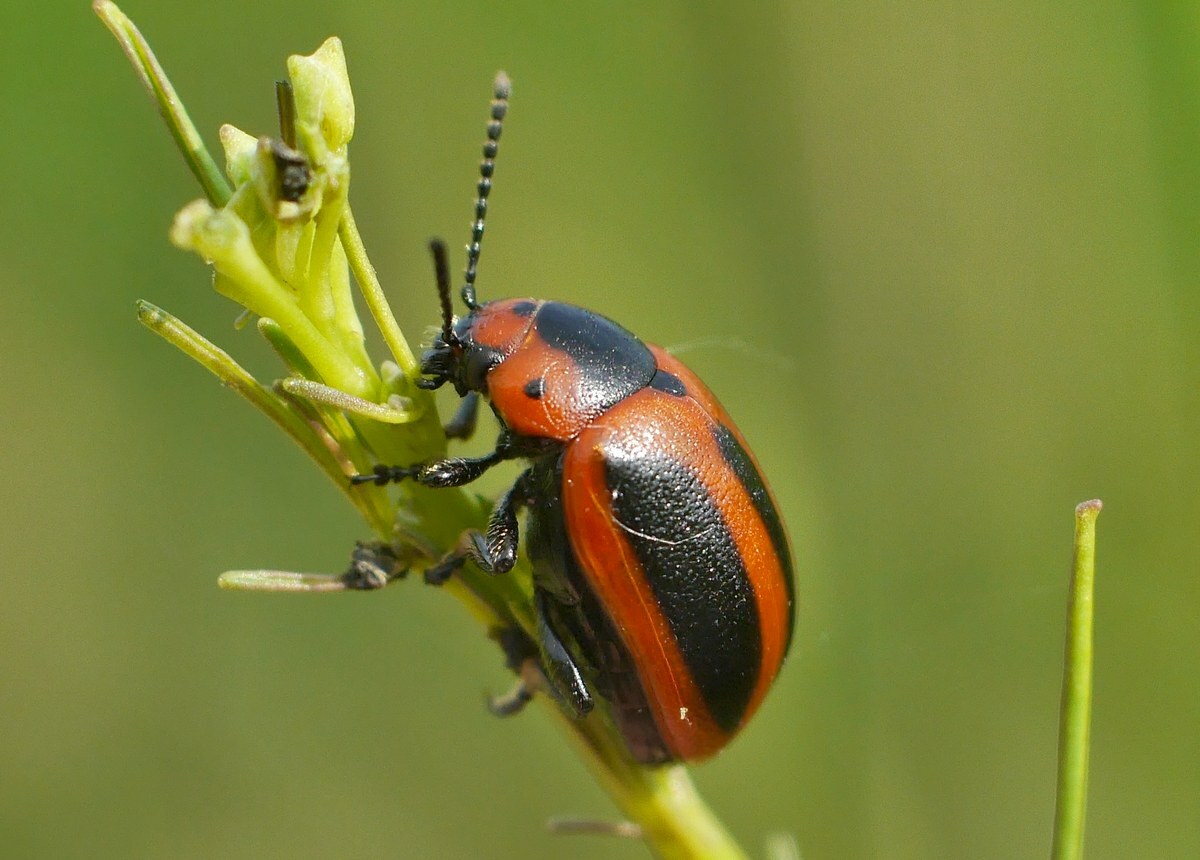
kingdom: Animalia
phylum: Arthropoda
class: Insecta
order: Coleoptera
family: Chrysomelidae
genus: Entomoscelis
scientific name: Entomoscelis adonidis
